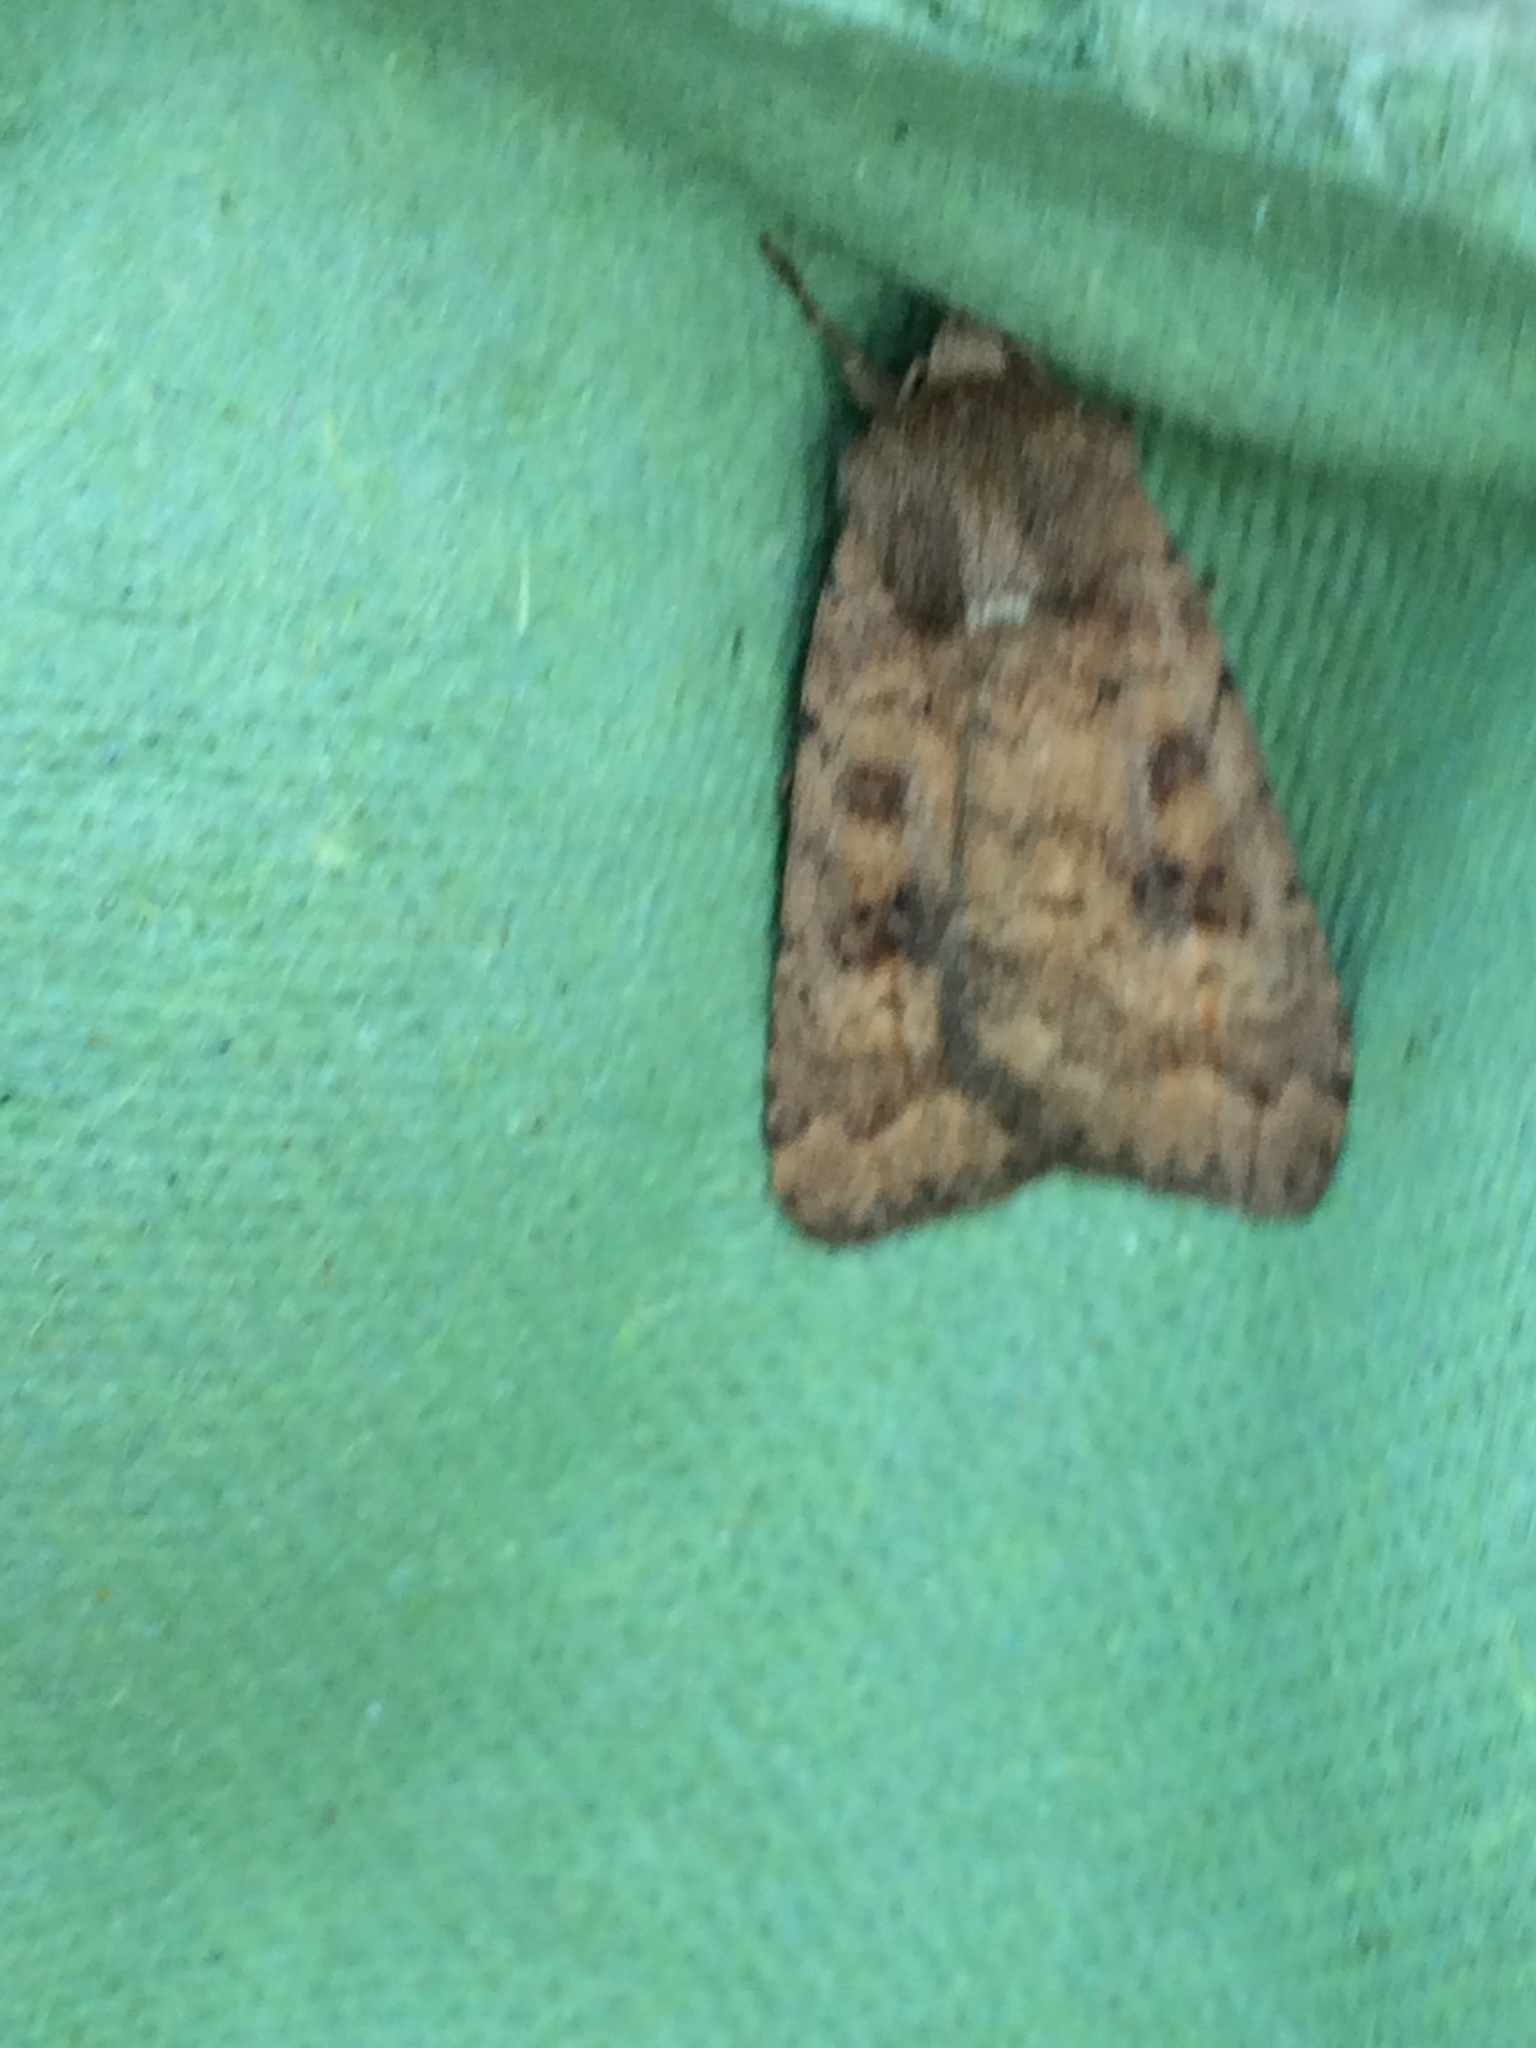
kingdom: Animalia
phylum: Arthropoda
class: Insecta
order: Lepidoptera
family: Noctuidae
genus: Caradrina
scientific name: Caradrina morpheus
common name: Mottled rustic
